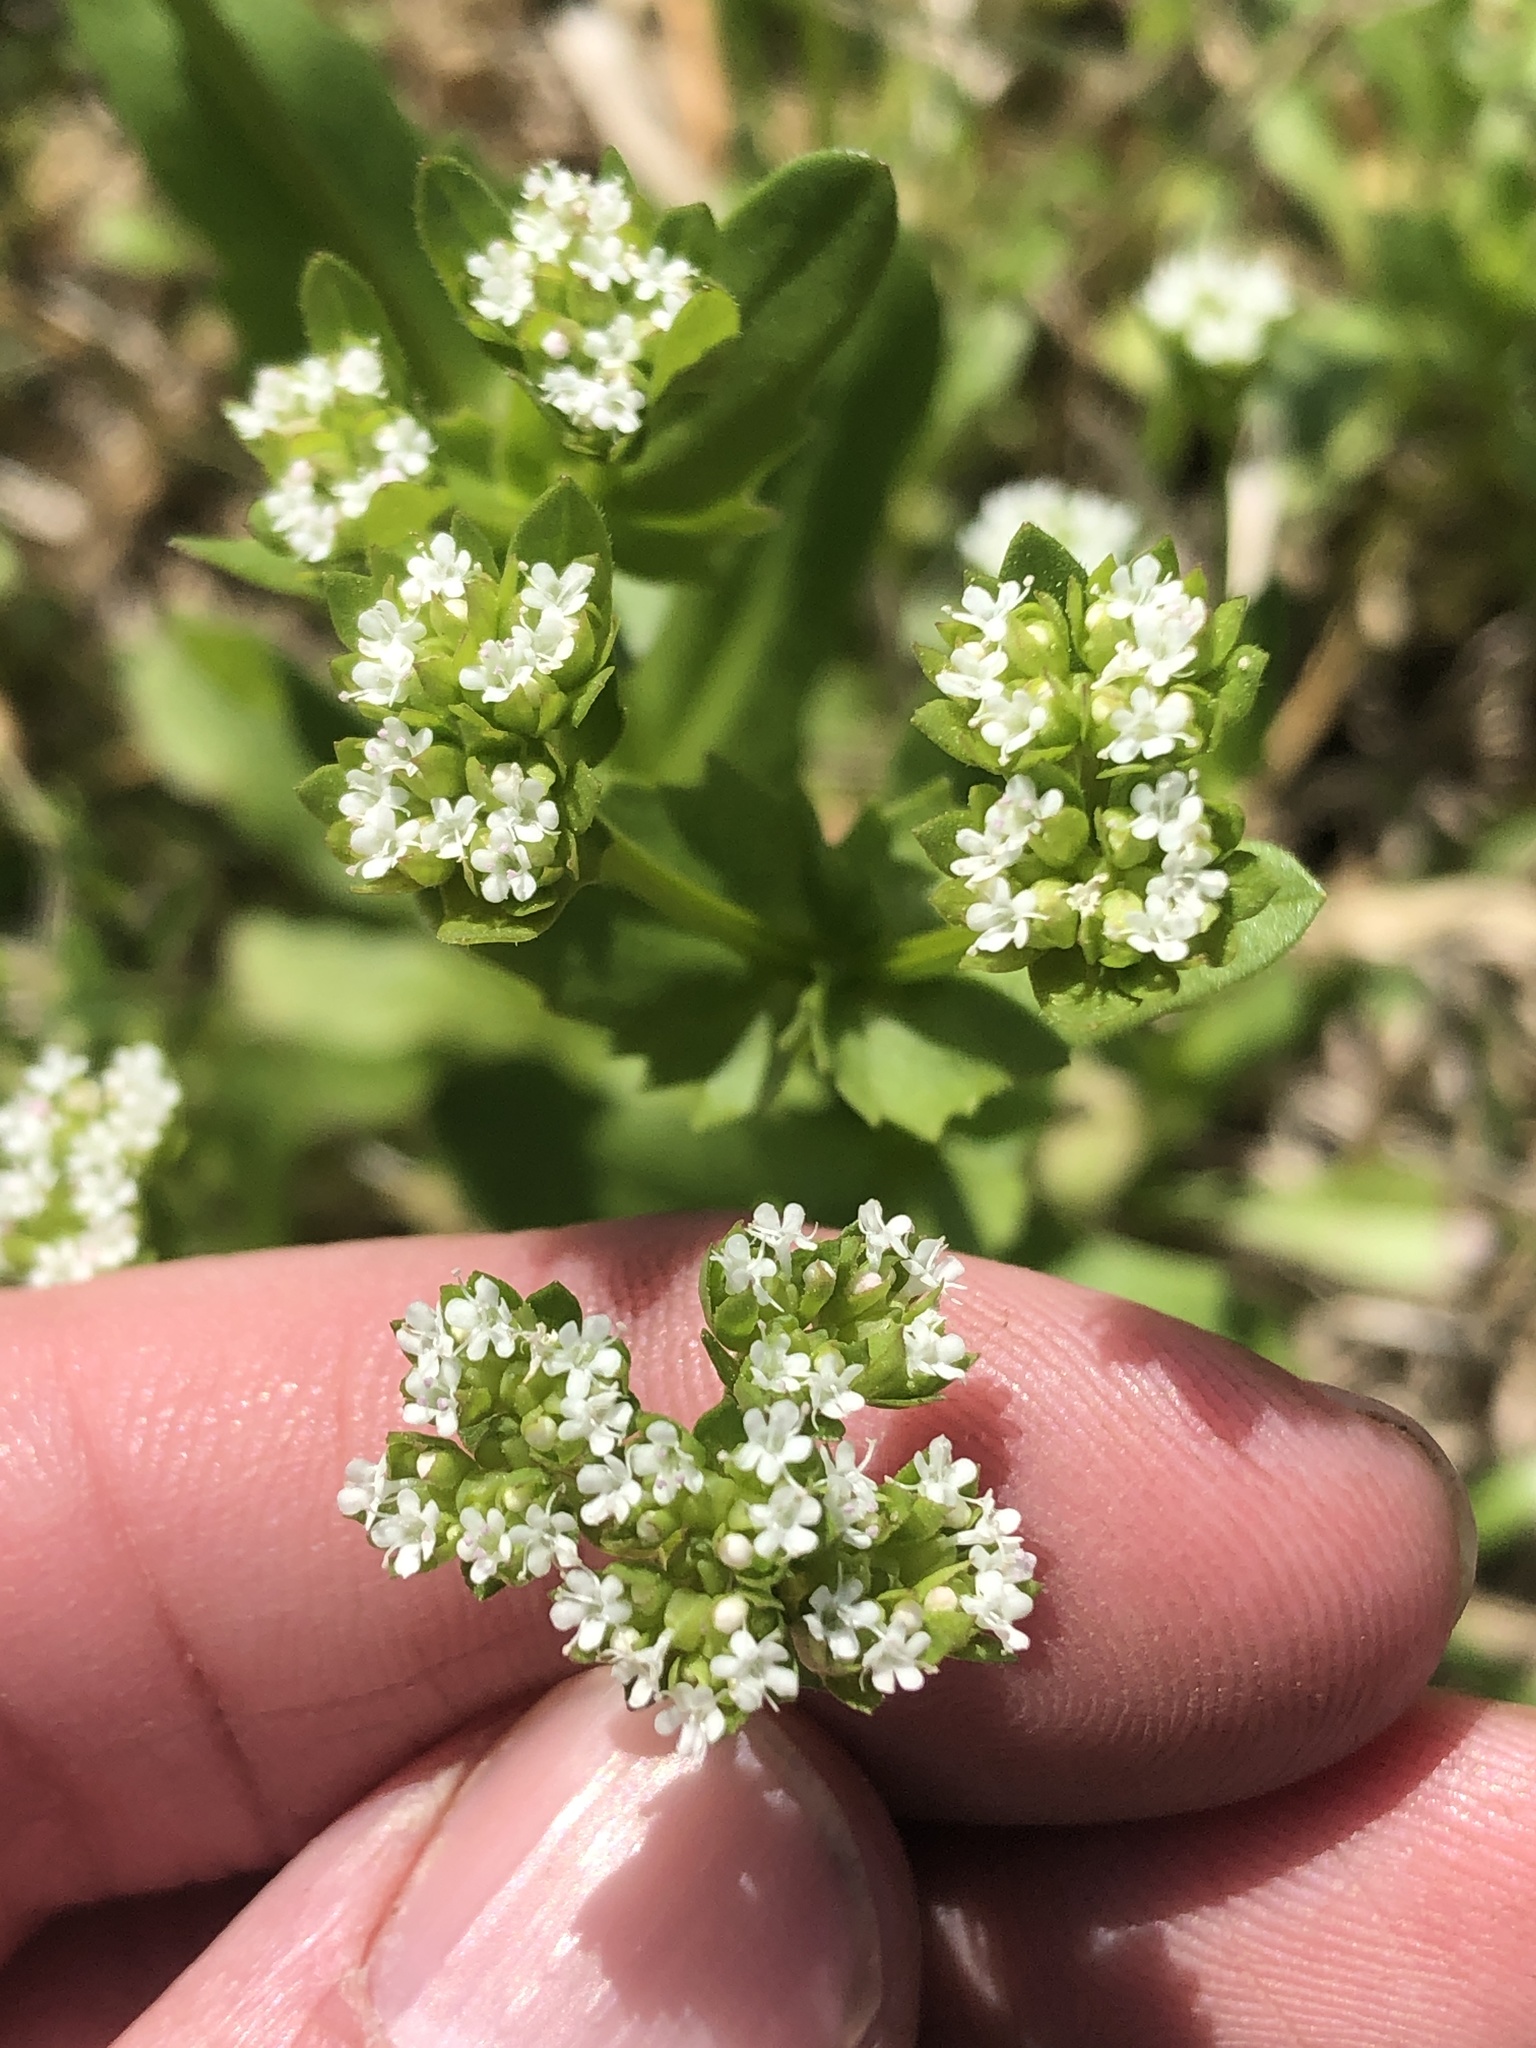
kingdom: Plantae
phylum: Tracheophyta
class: Magnoliopsida
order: Dipsacales
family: Caprifoliaceae
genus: Valerianella
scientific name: Valerianella radiata
